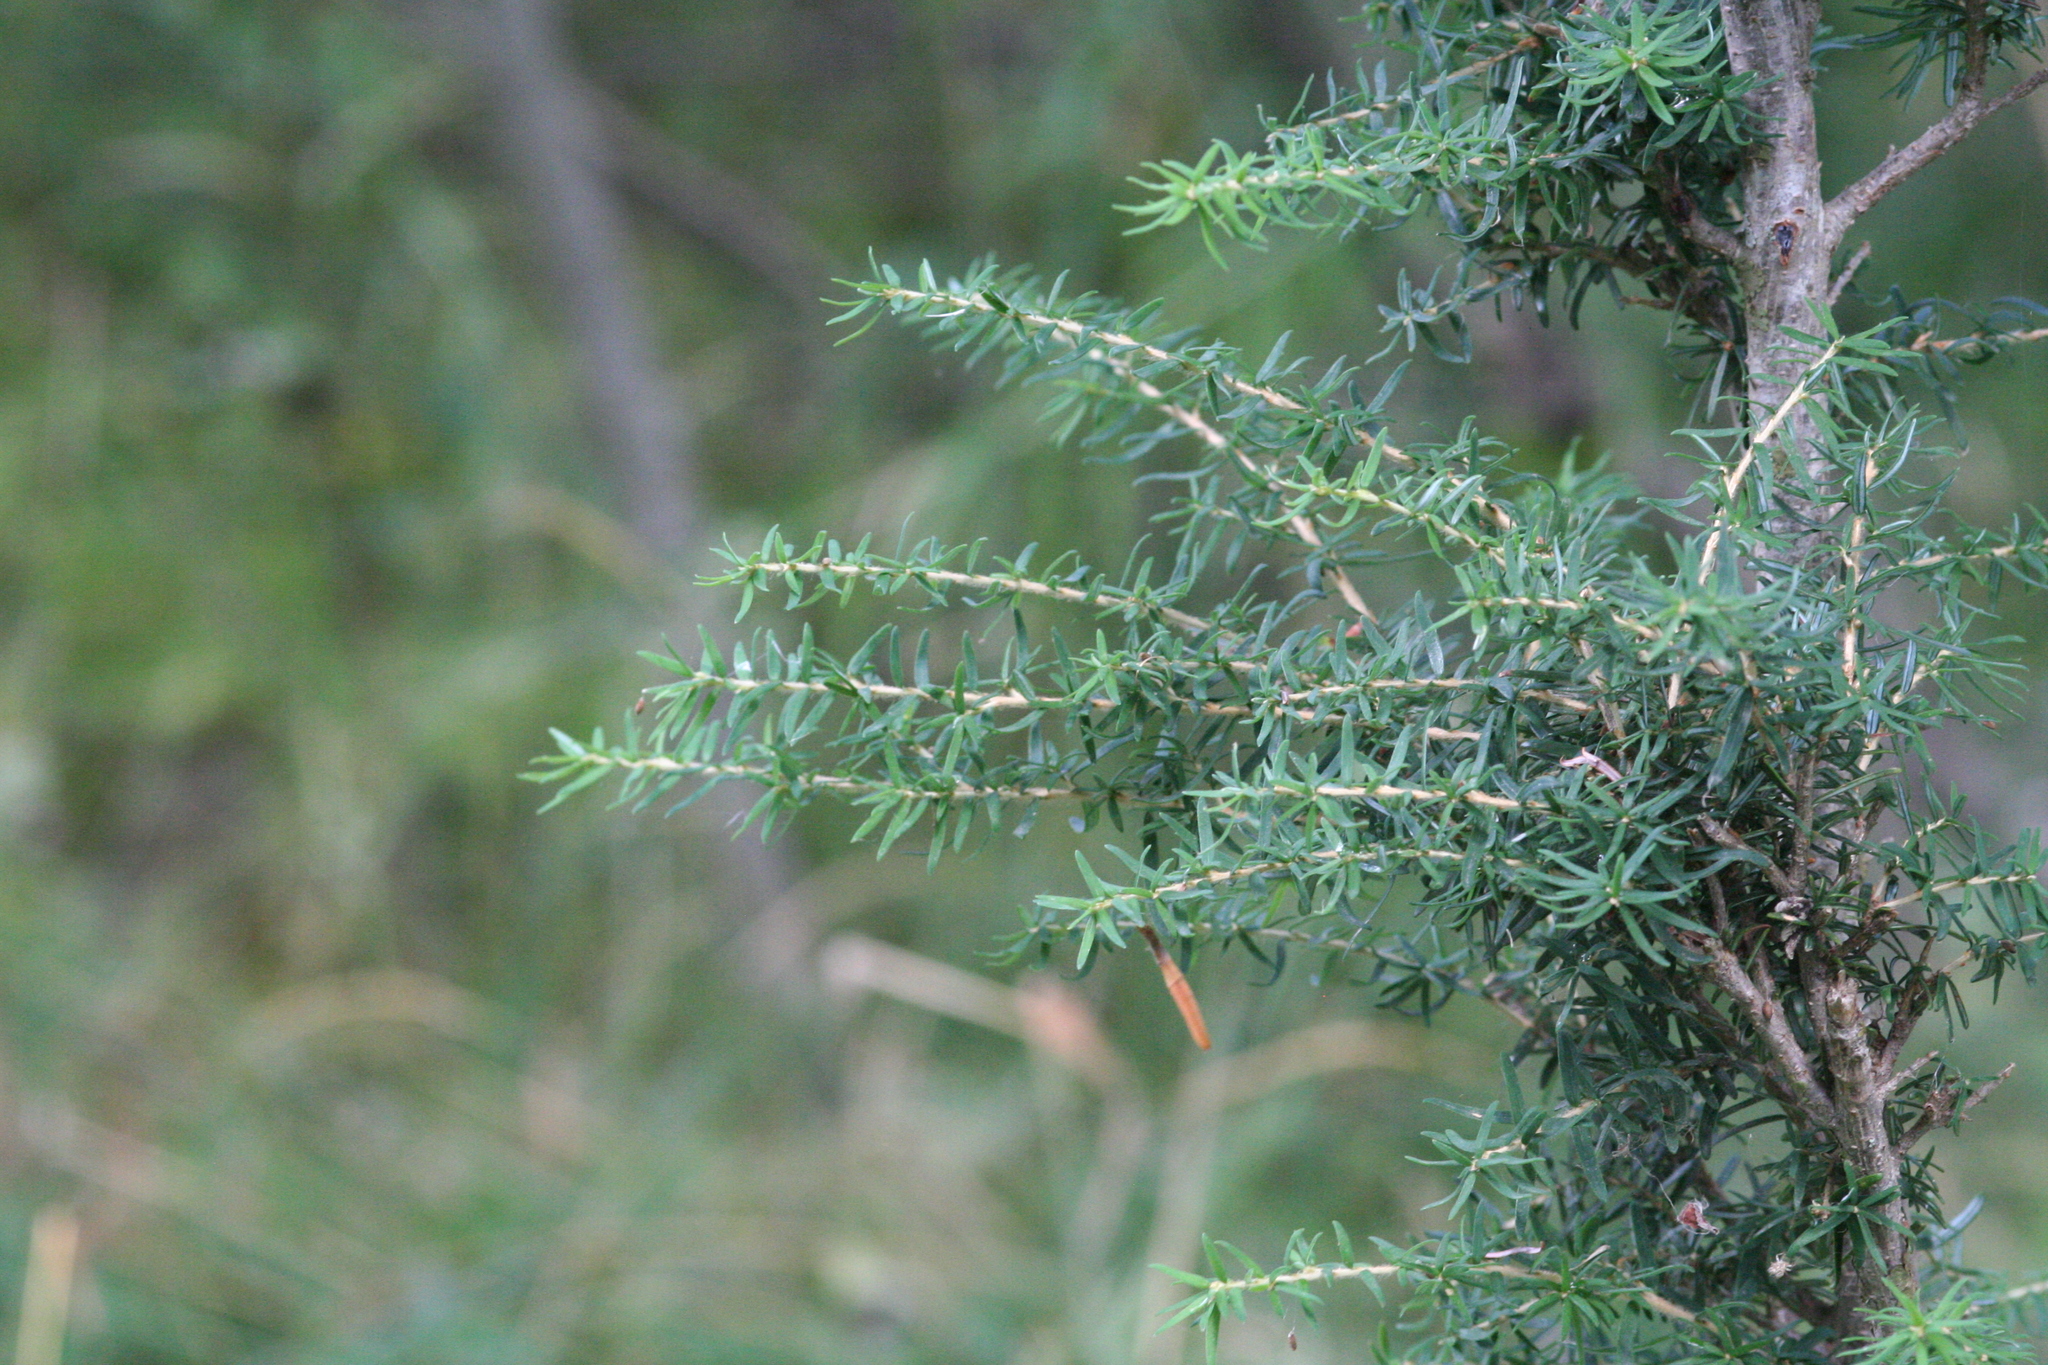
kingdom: Plantae
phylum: Tracheophyta
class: Pinopsida
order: Pinales
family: Pinaceae
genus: Tsuga
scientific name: Tsuga heterophylla
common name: Western hemlock
